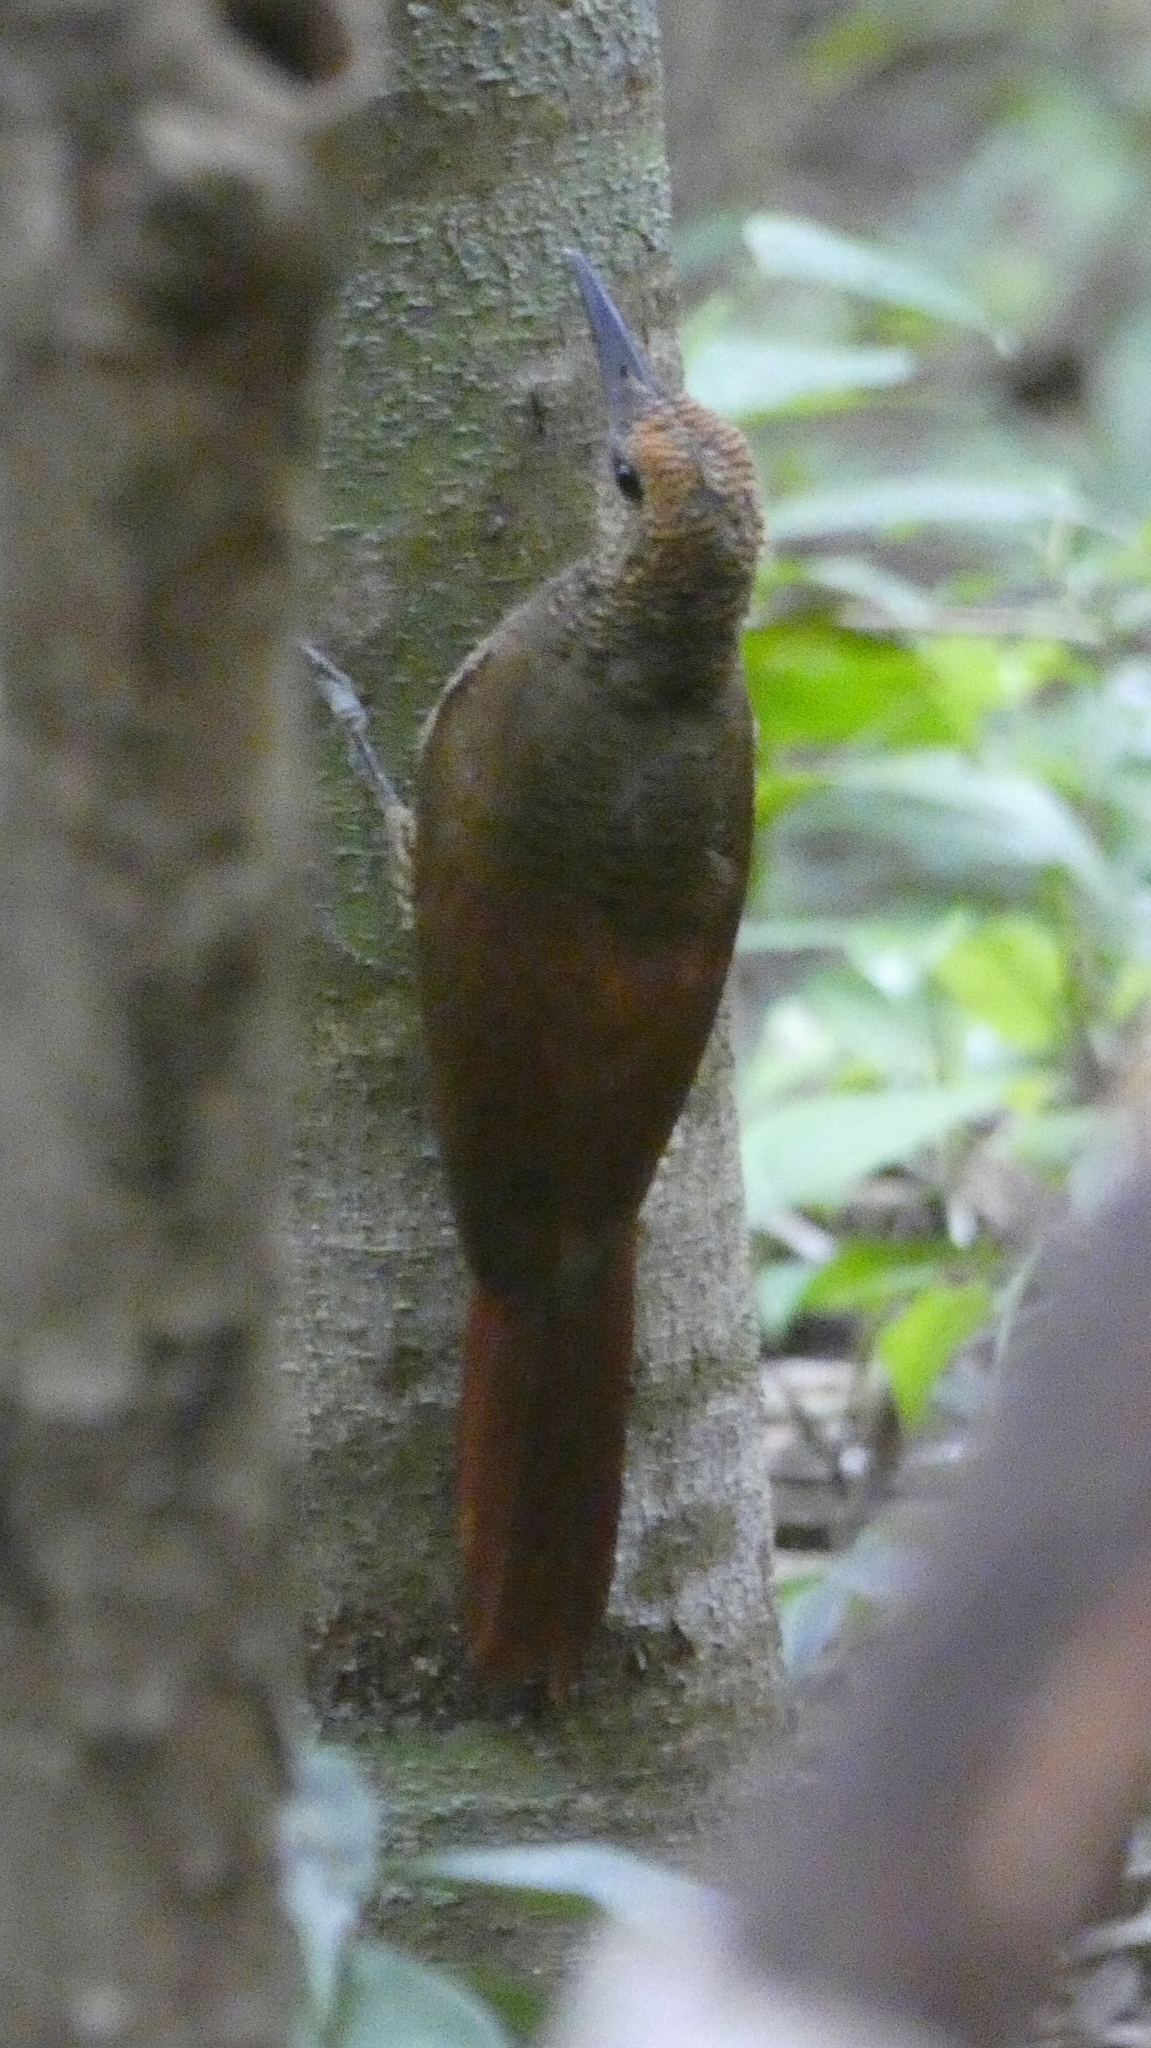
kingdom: Animalia
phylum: Chordata
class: Aves
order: Passeriformes
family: Furnariidae
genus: Dendrocolaptes
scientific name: Dendrocolaptes sanctithomae
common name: Northern barred-woodcreeper
